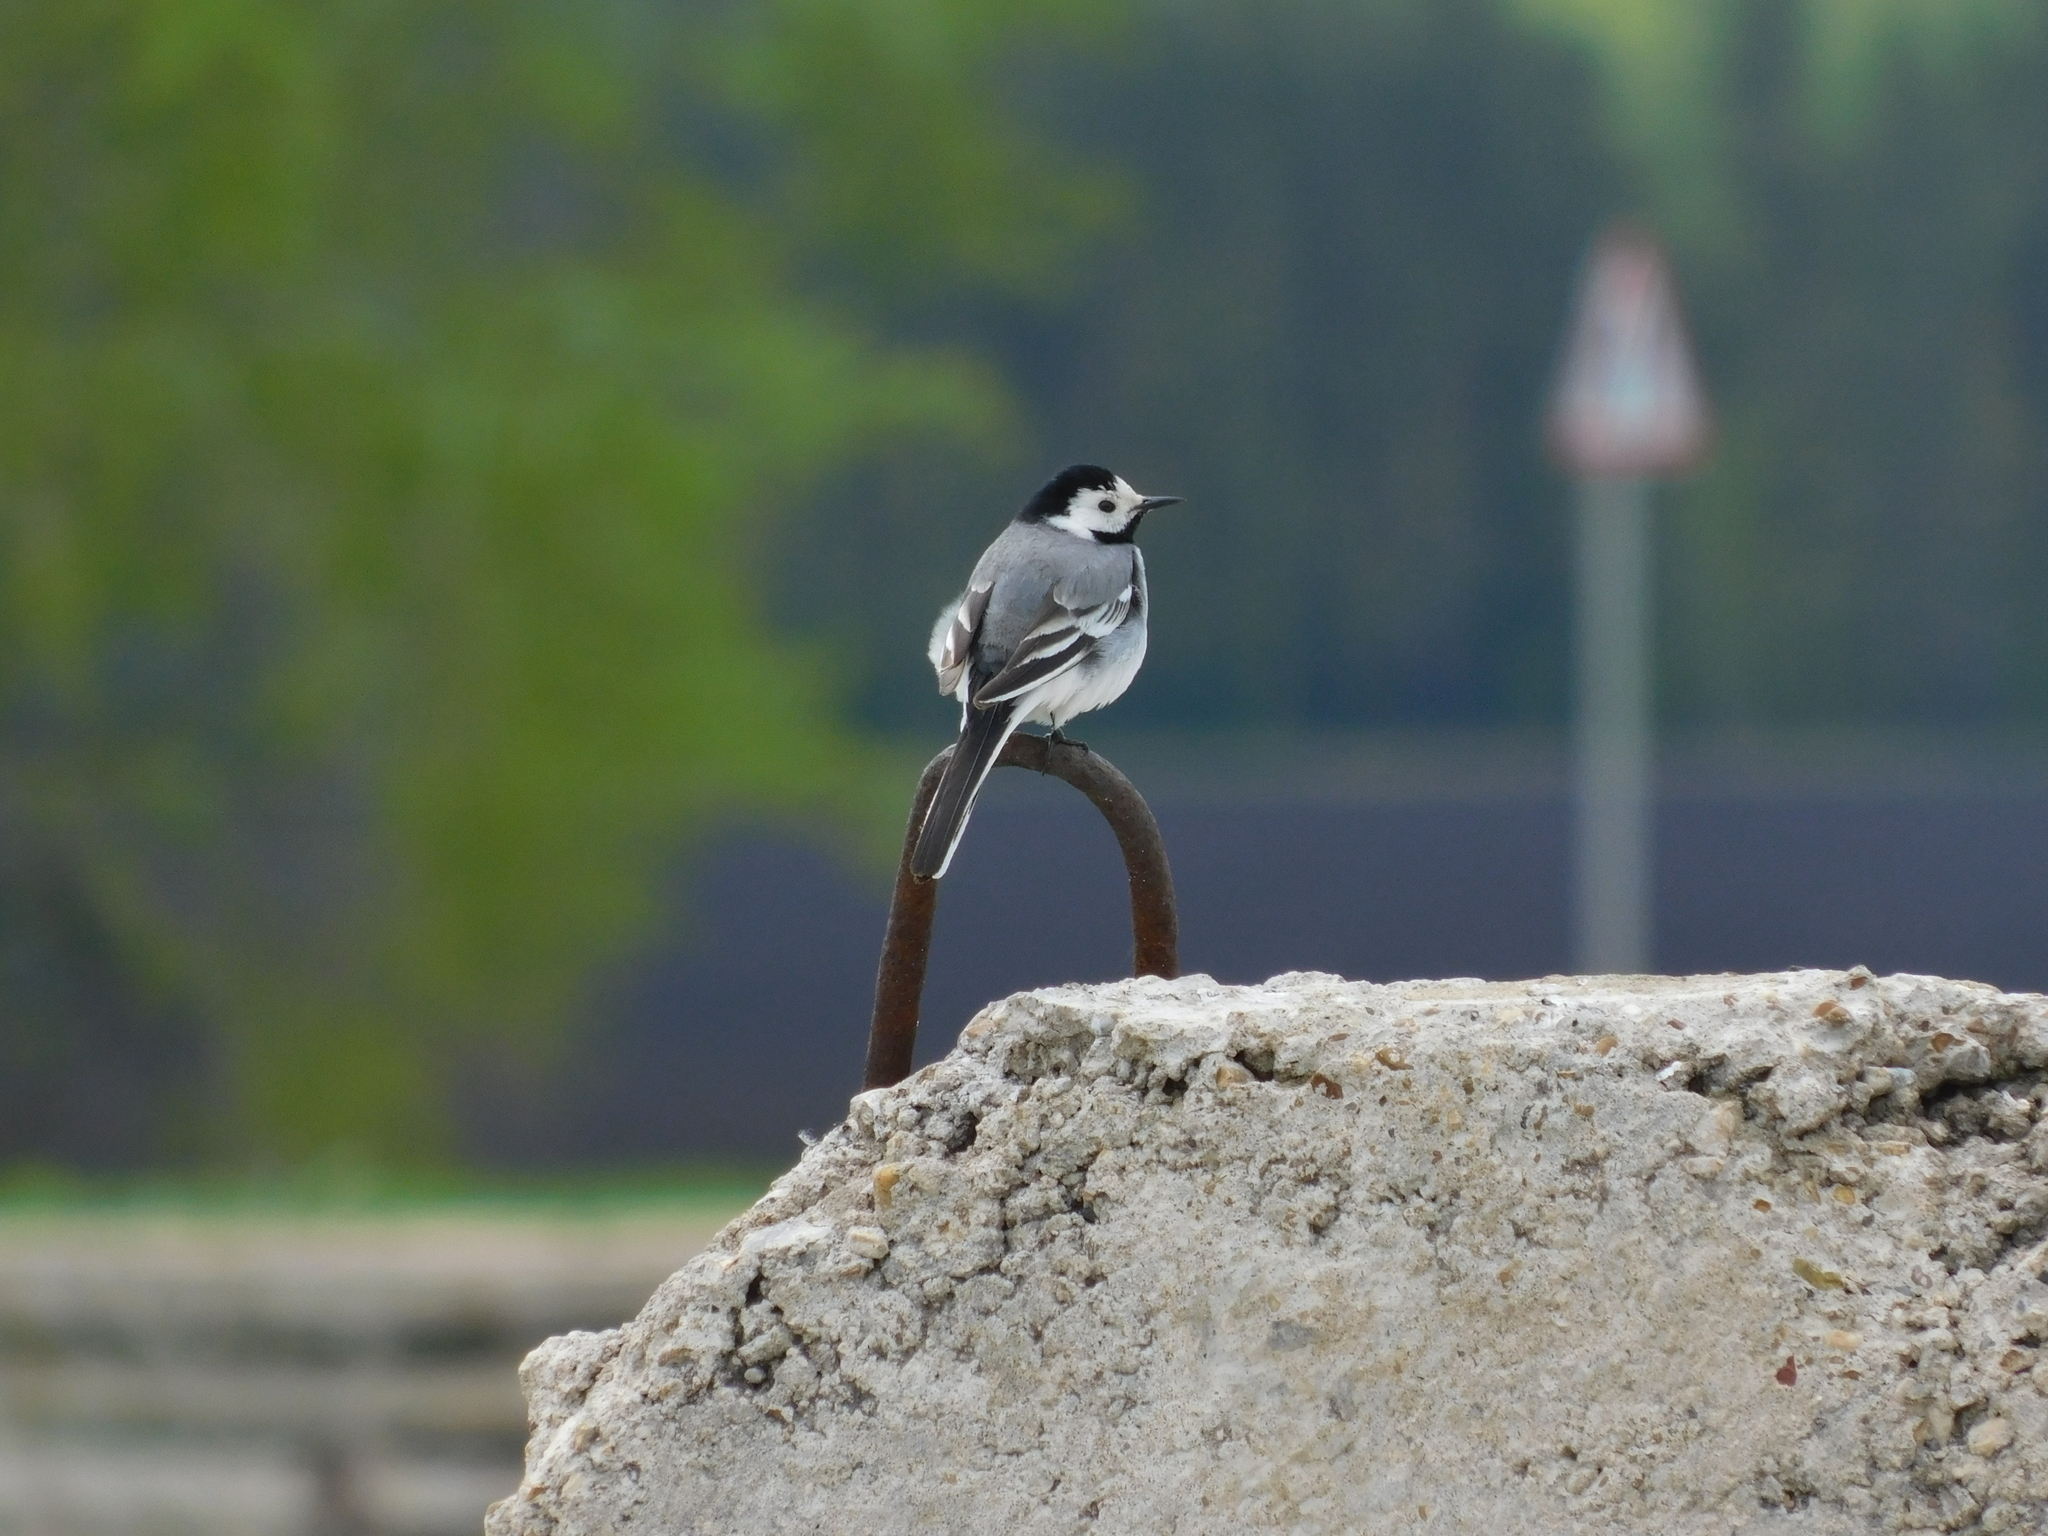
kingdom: Animalia
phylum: Chordata
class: Aves
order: Passeriformes
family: Motacillidae
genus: Motacilla
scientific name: Motacilla alba
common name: White wagtail
